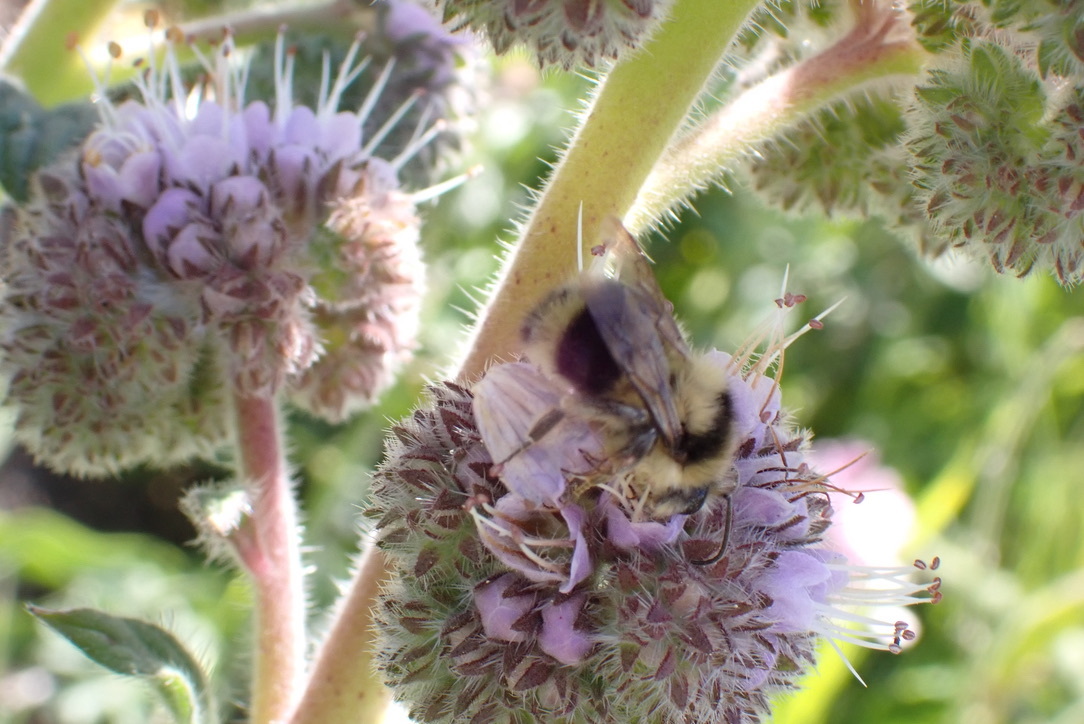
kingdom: Animalia
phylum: Arthropoda
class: Insecta
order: Hymenoptera
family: Apidae
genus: Bombus
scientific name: Bombus melanopygus
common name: Black tail bumble bee
